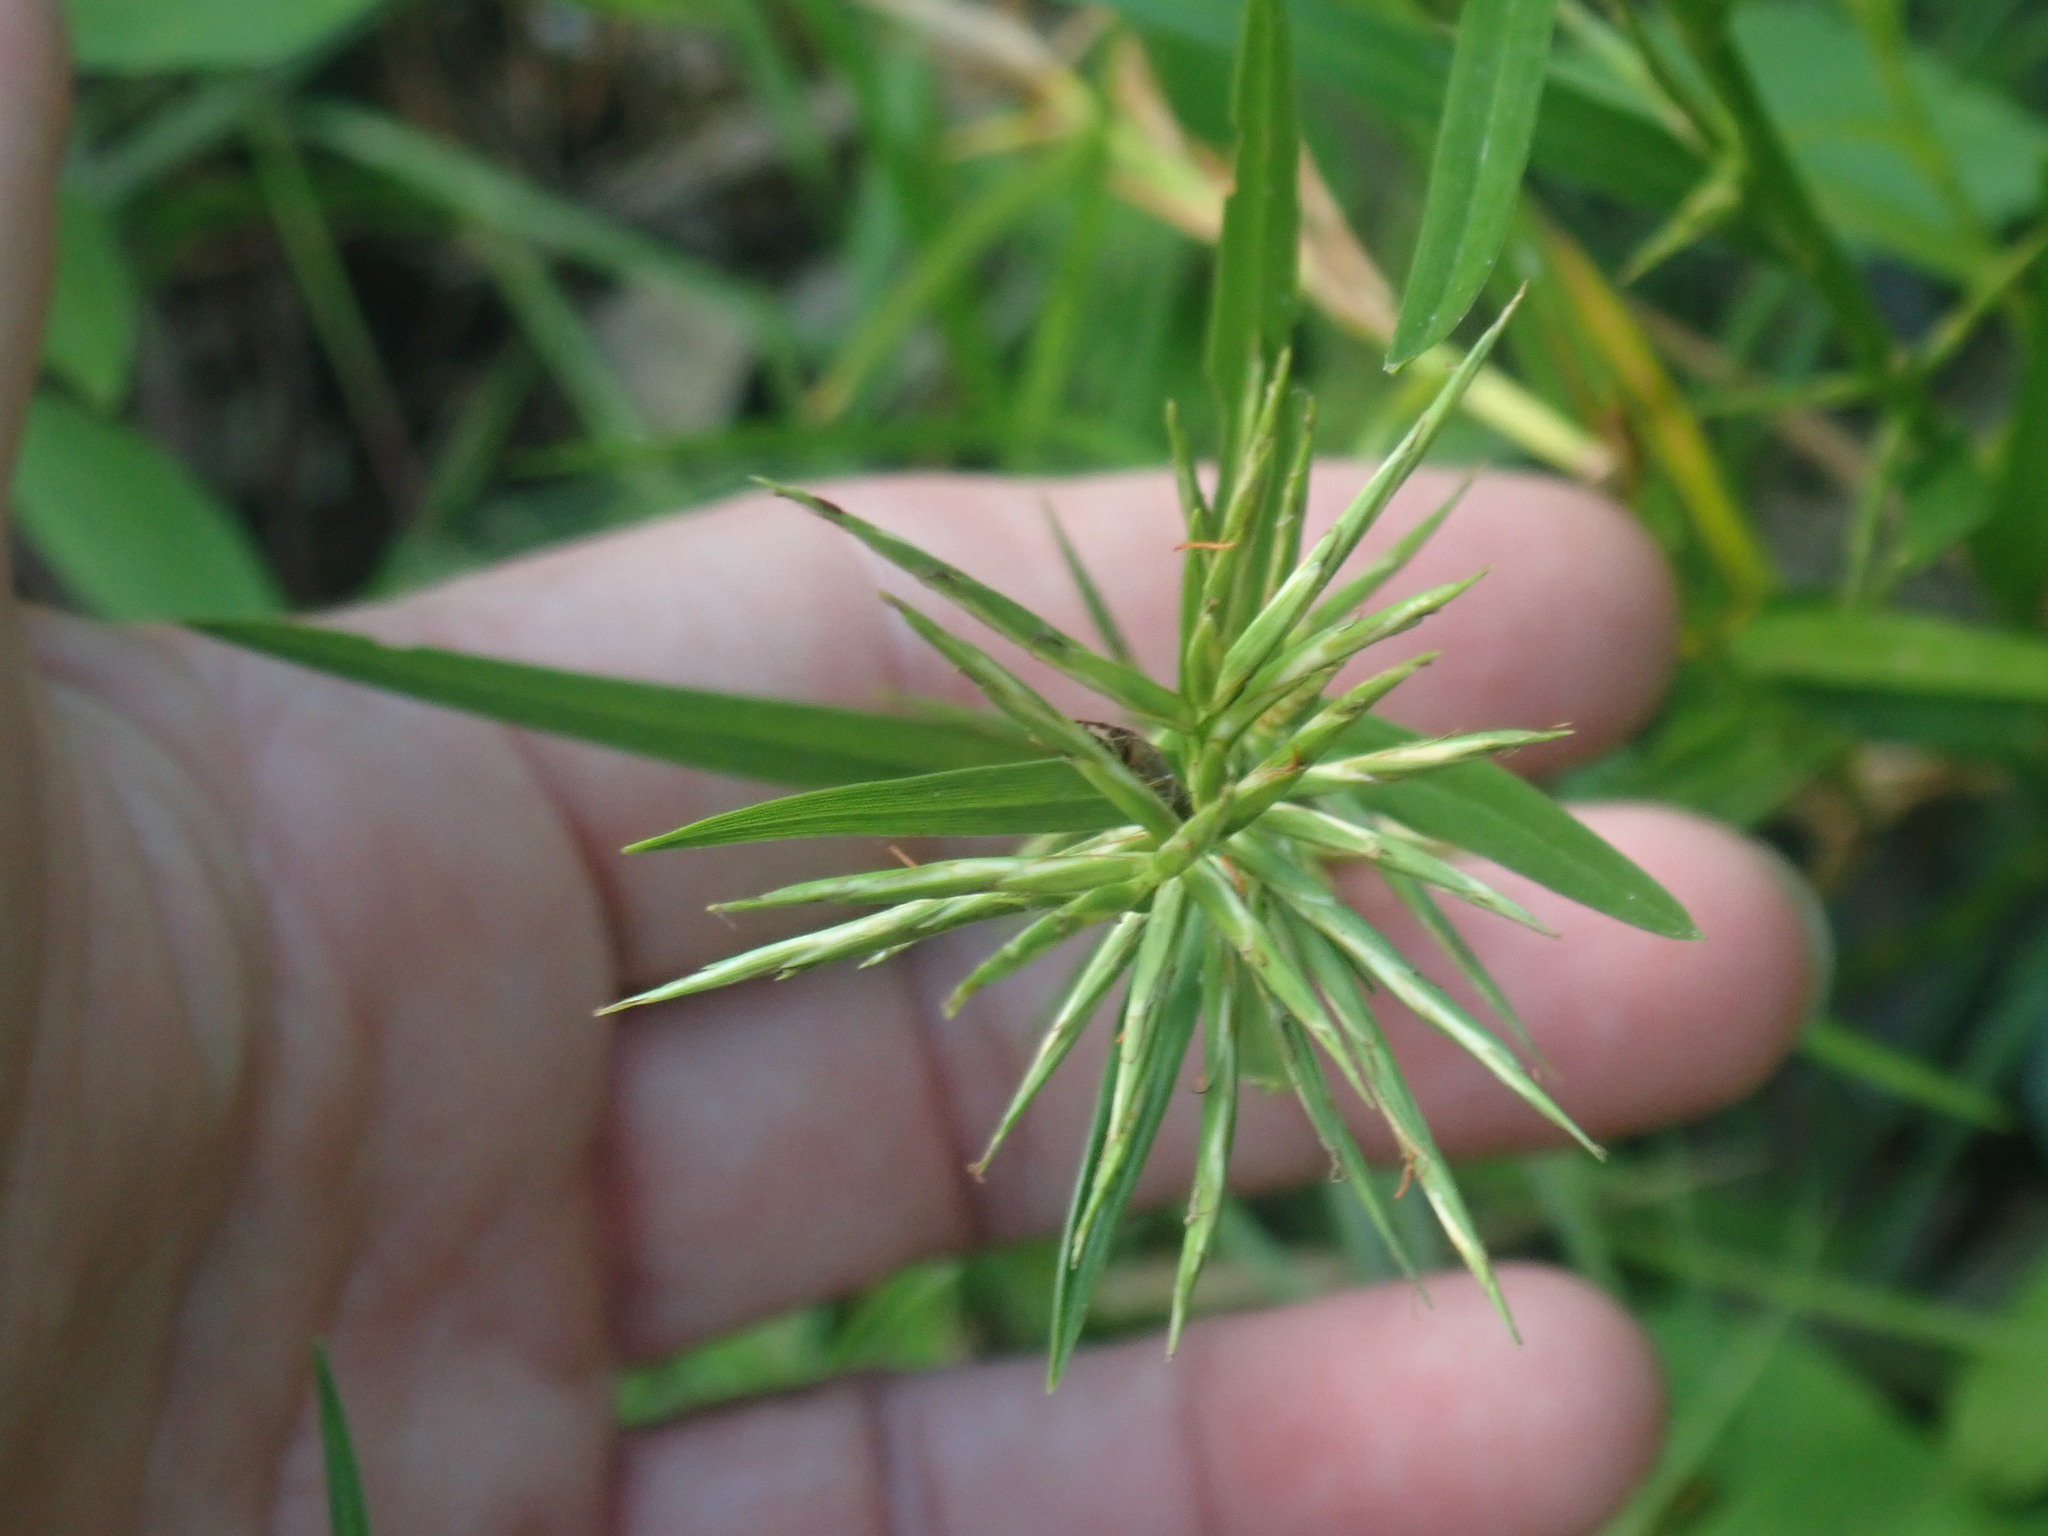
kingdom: Plantae
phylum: Tracheophyta
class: Liliopsida
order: Poales
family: Cyperaceae
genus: Dulichium
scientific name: Dulichium arundinaceum
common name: Three-way sedge
